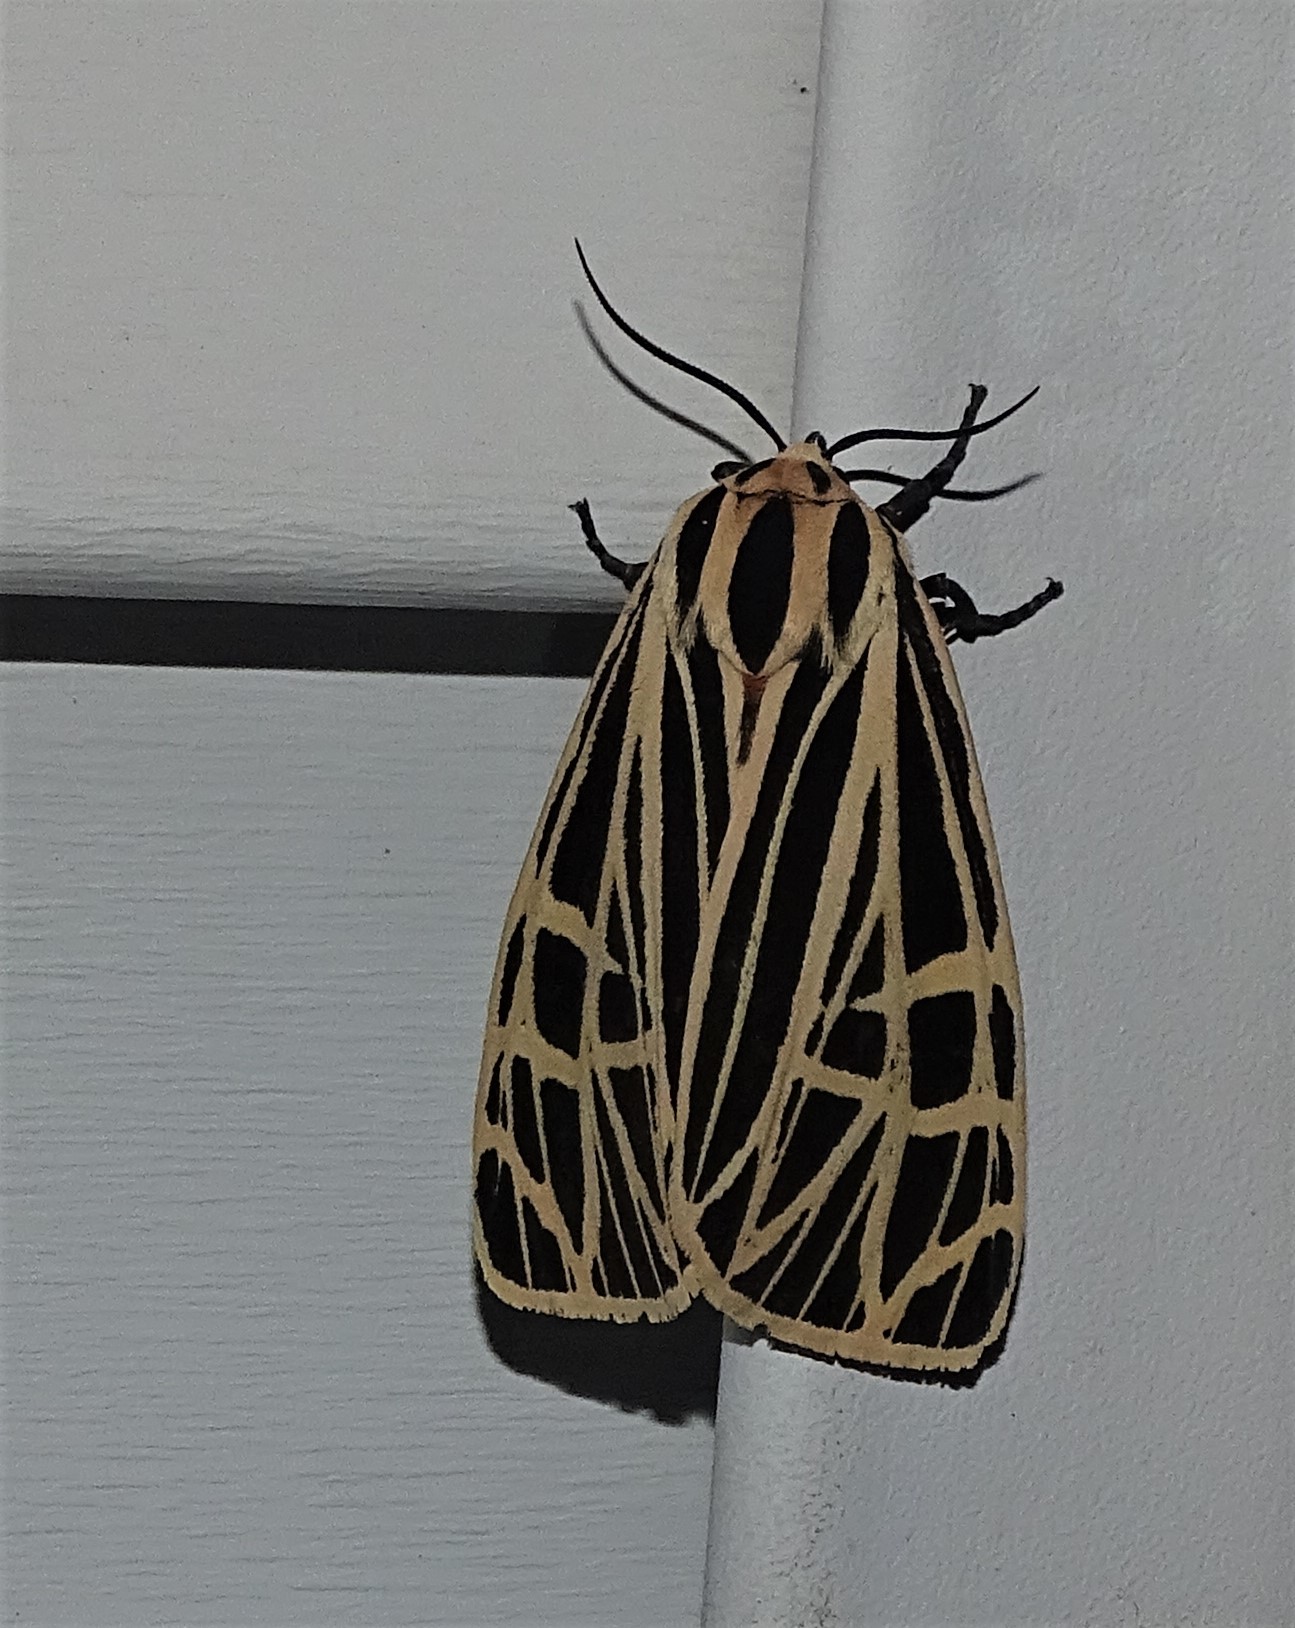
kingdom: Animalia
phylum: Arthropoda
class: Insecta
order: Lepidoptera
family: Erebidae
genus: Grammia
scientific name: Grammia virgo
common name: Virgin tiger moth
